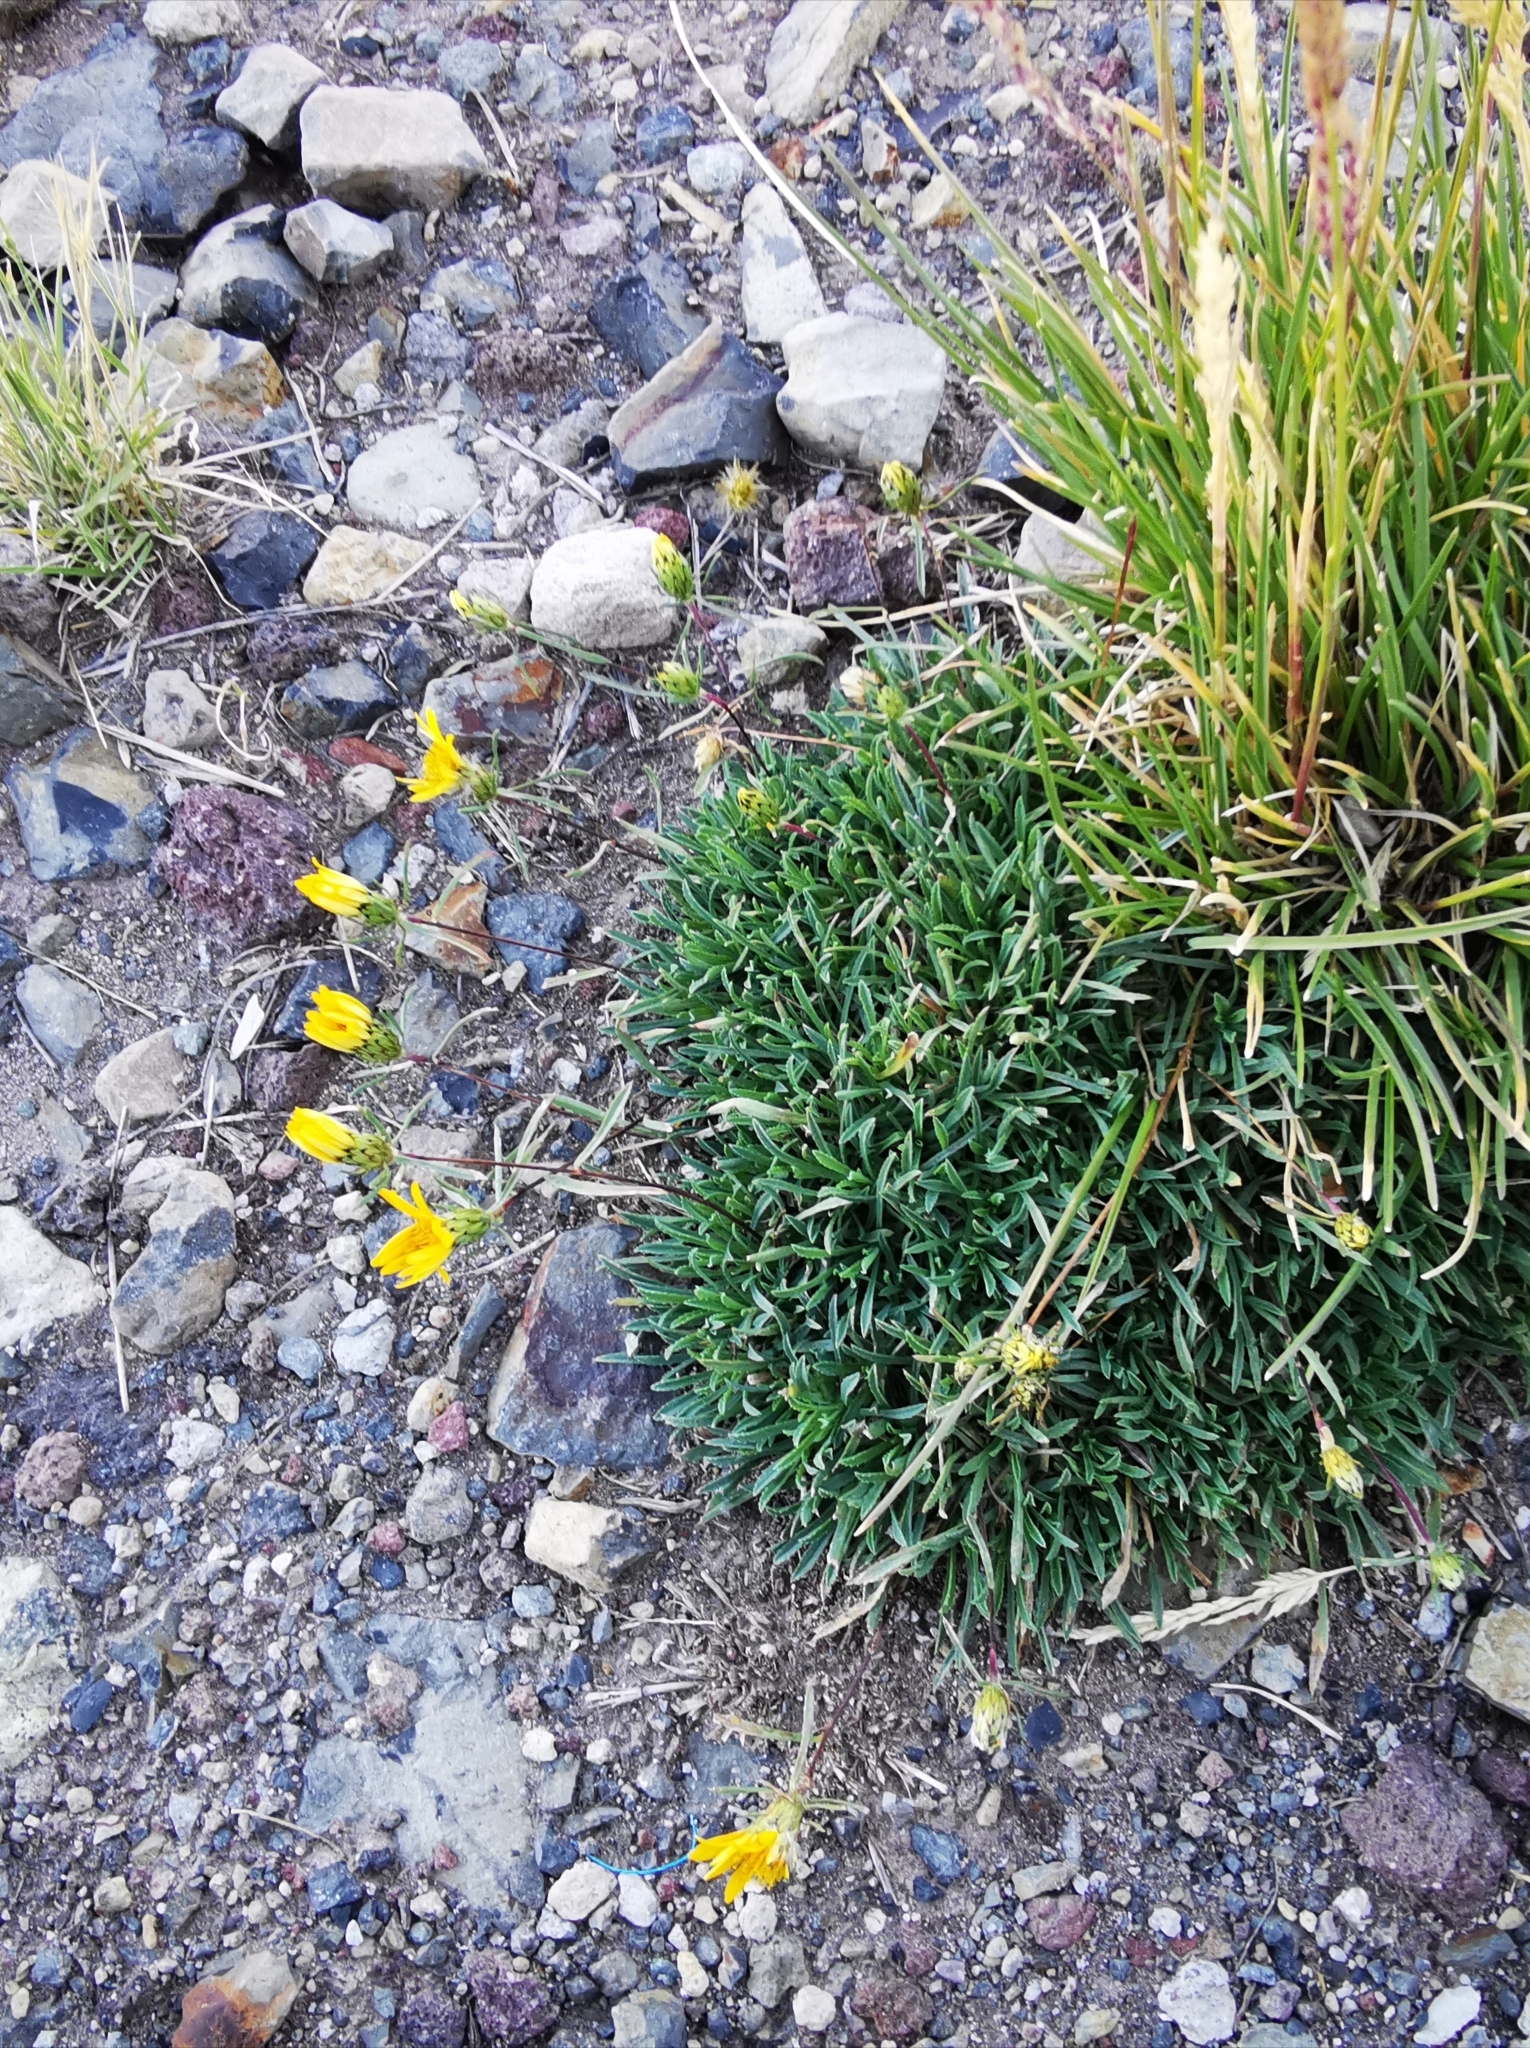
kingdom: Plantae
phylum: Tracheophyta
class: Magnoliopsida
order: Asterales
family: Asteraceae
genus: Chaetanthera
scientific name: Chaetanthera chilensis
